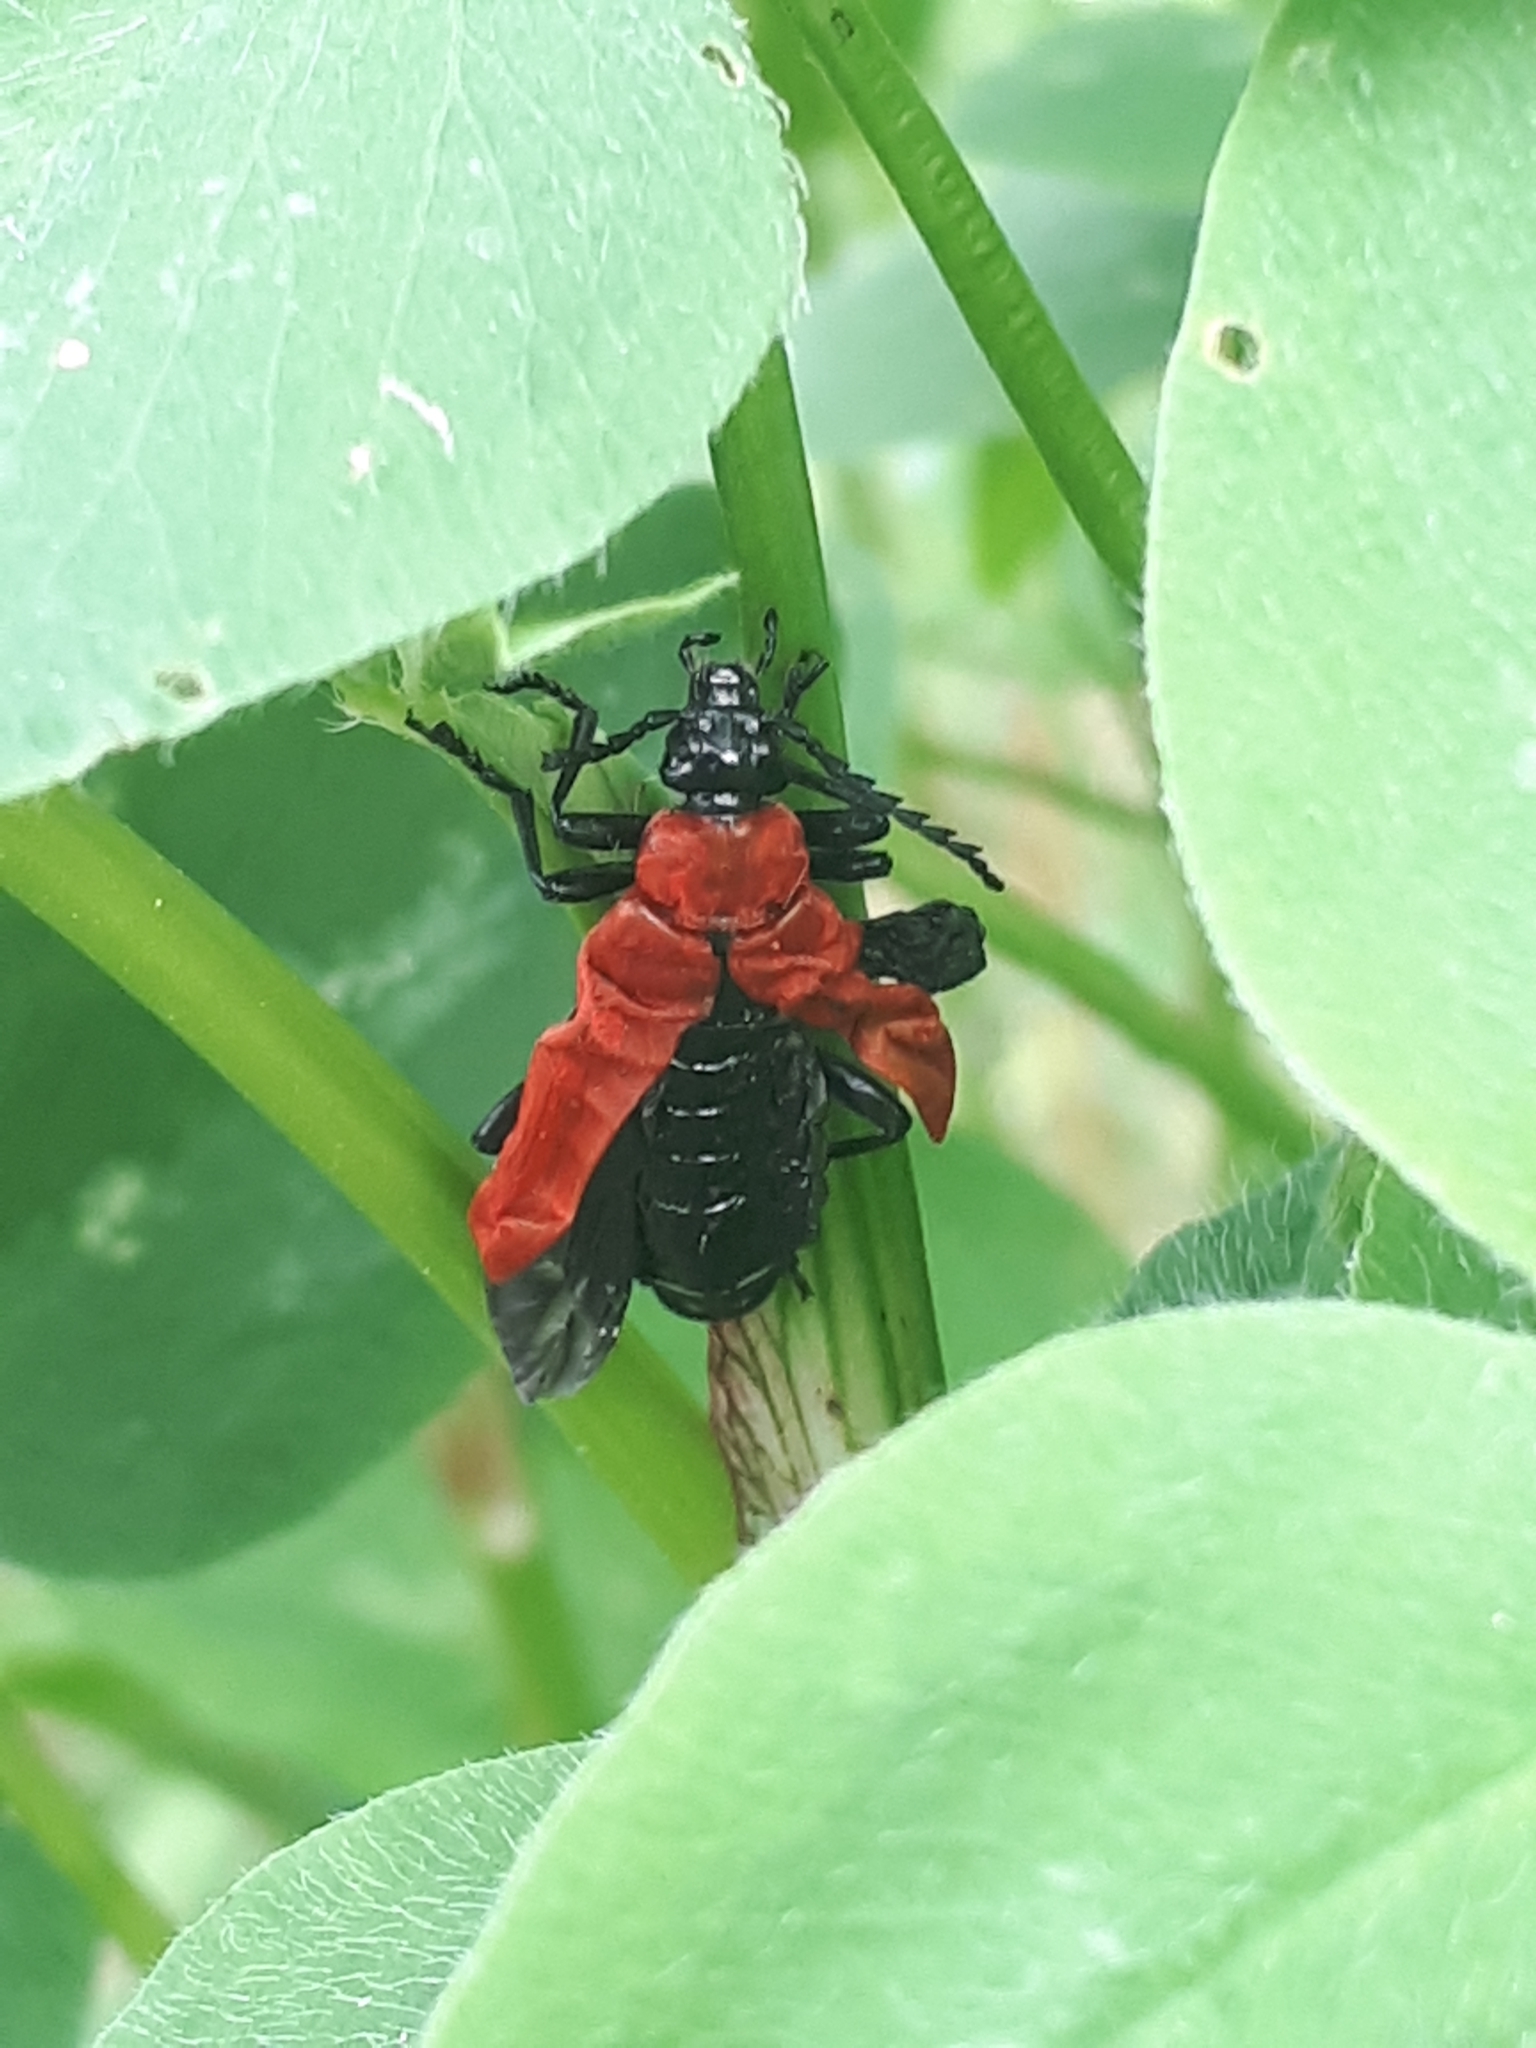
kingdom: Animalia
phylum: Arthropoda
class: Insecta
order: Coleoptera
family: Pyrochroidae
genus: Pyrochroa
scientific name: Pyrochroa coccinea
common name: Black-headed cardinal beetle
